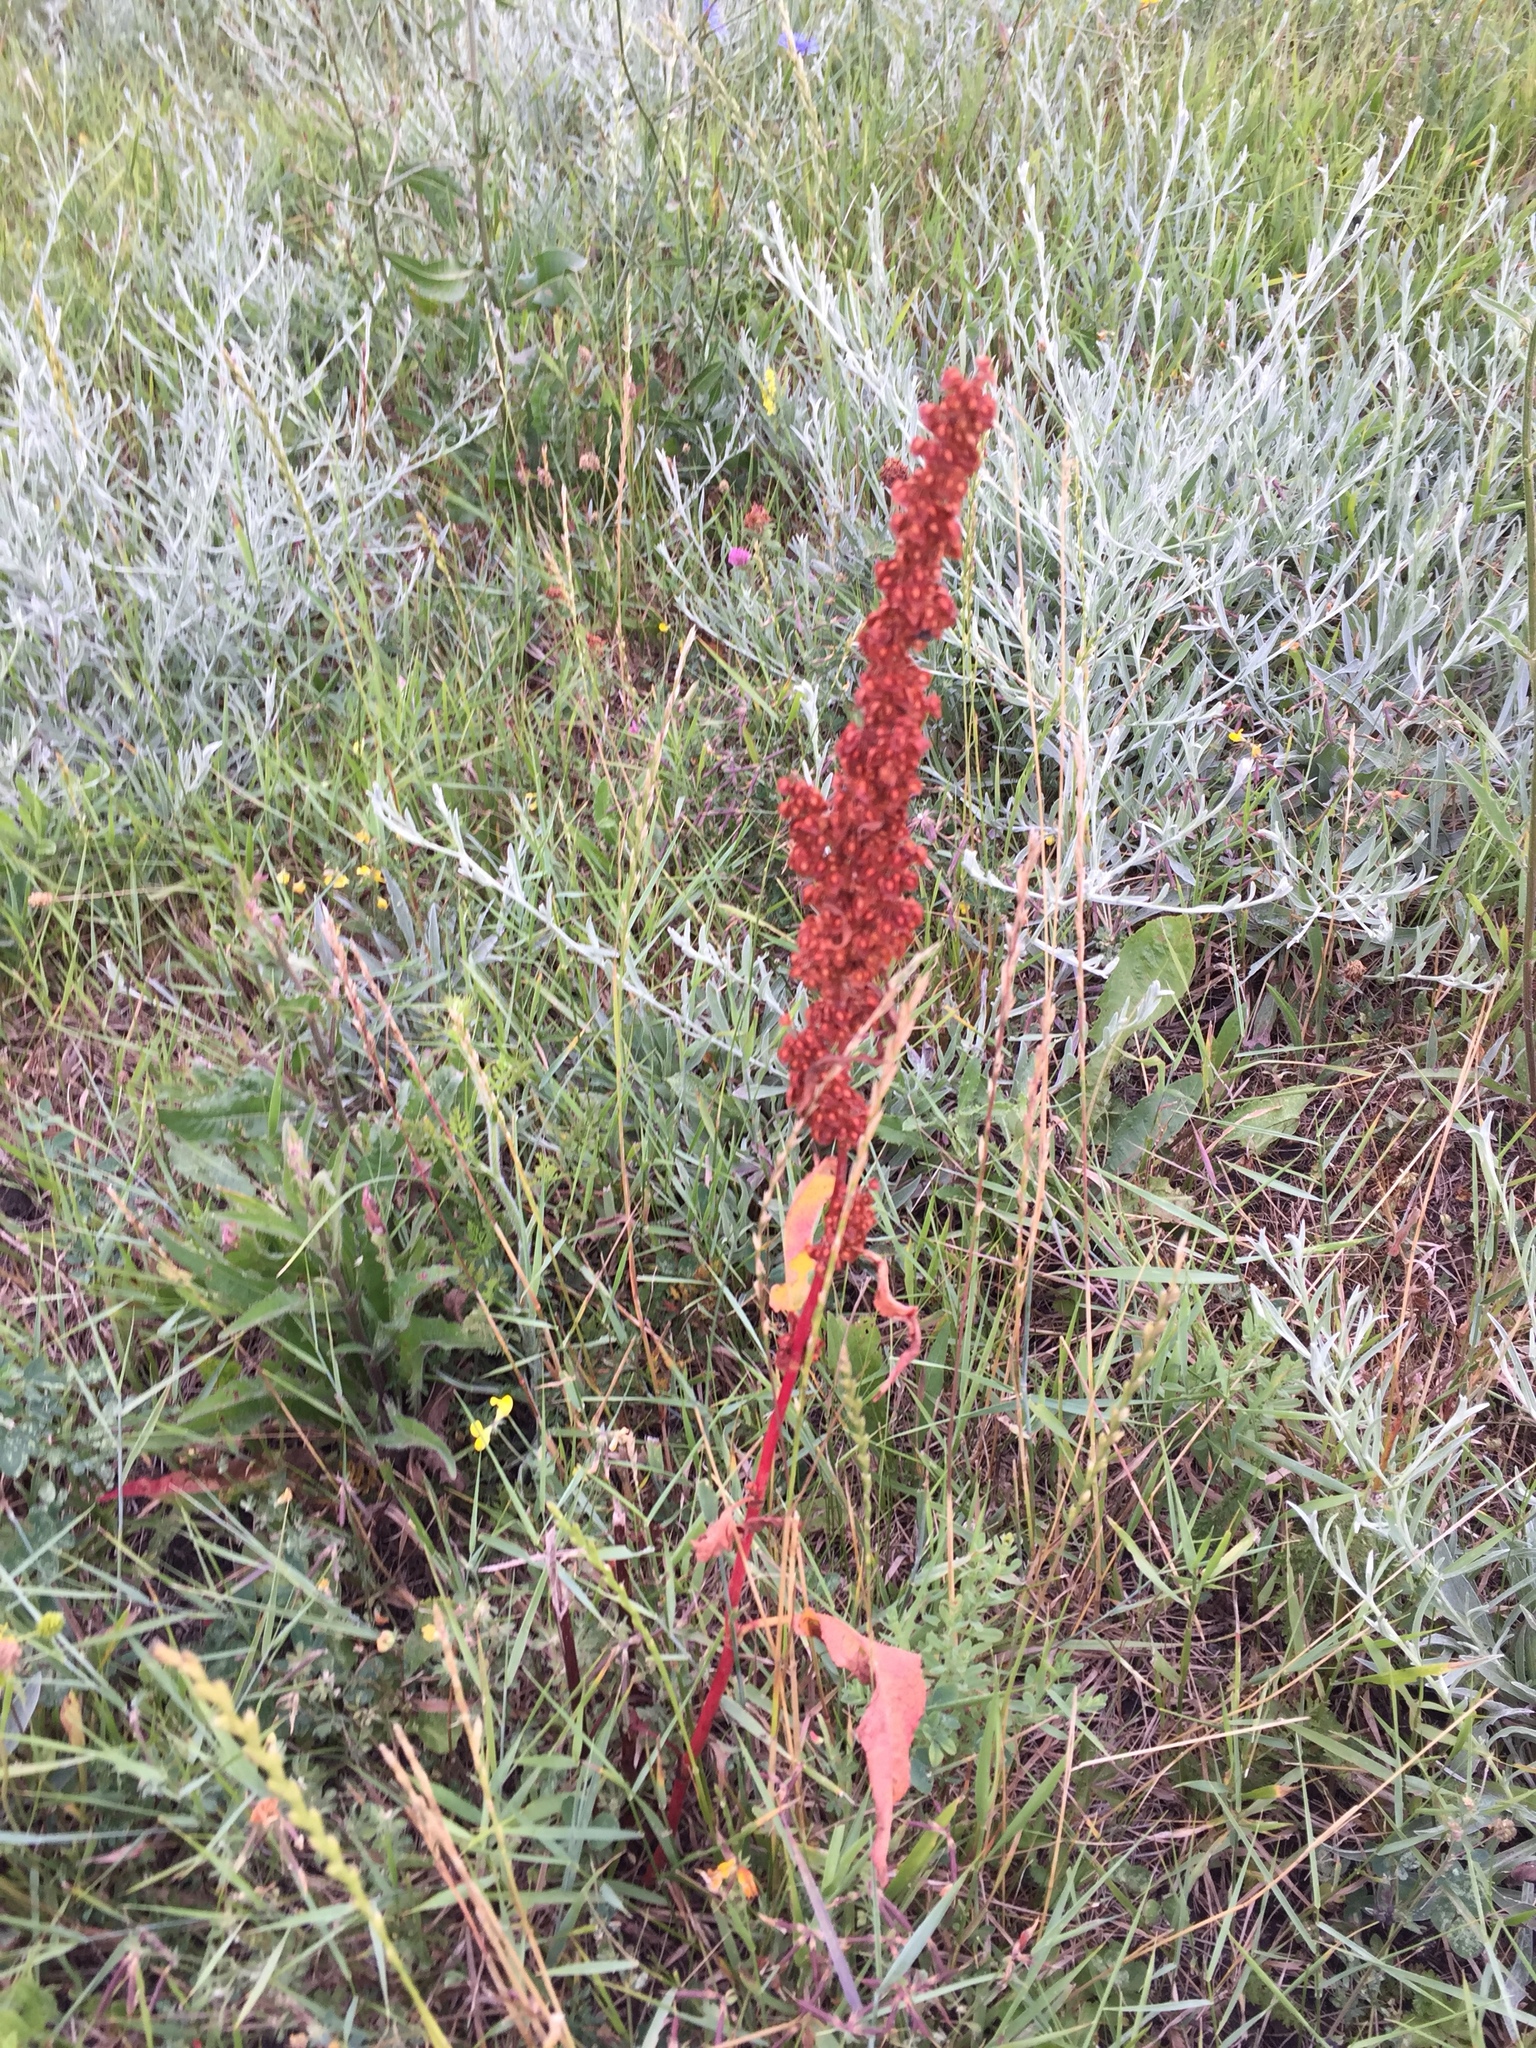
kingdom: Plantae
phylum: Tracheophyta
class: Magnoliopsida
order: Caryophyllales
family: Polygonaceae
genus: Rumex
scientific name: Rumex crispus
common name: Curled dock
